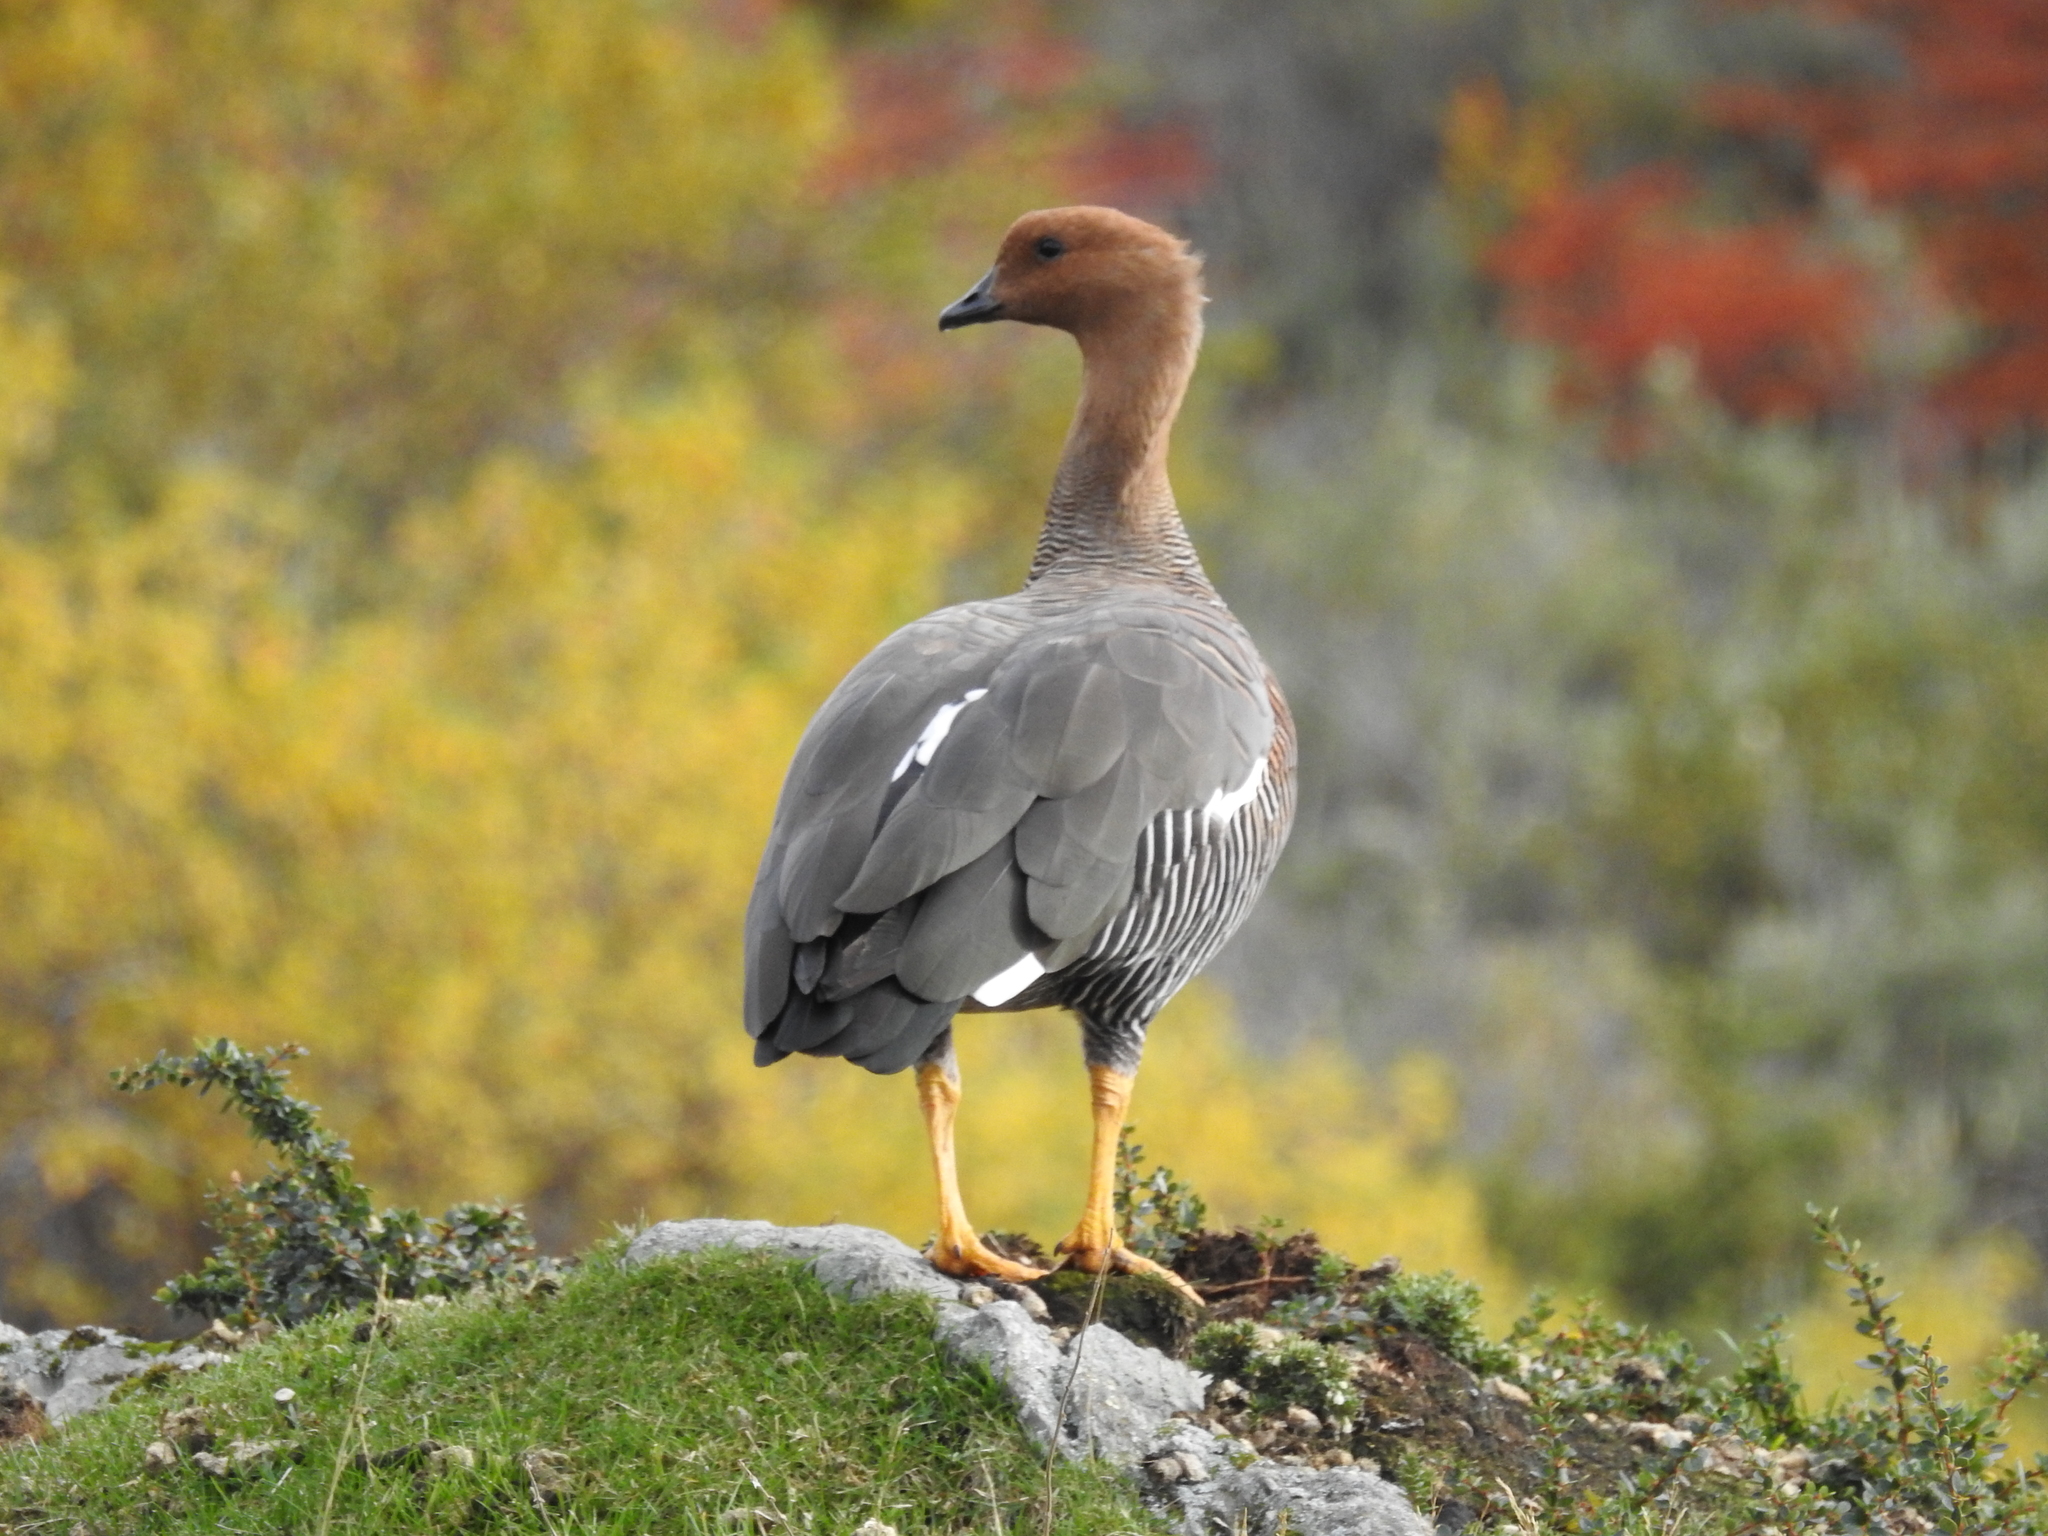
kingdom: Animalia
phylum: Chordata
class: Aves
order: Anseriformes
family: Anatidae
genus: Chloephaga
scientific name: Chloephaga picta
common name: Upland goose
